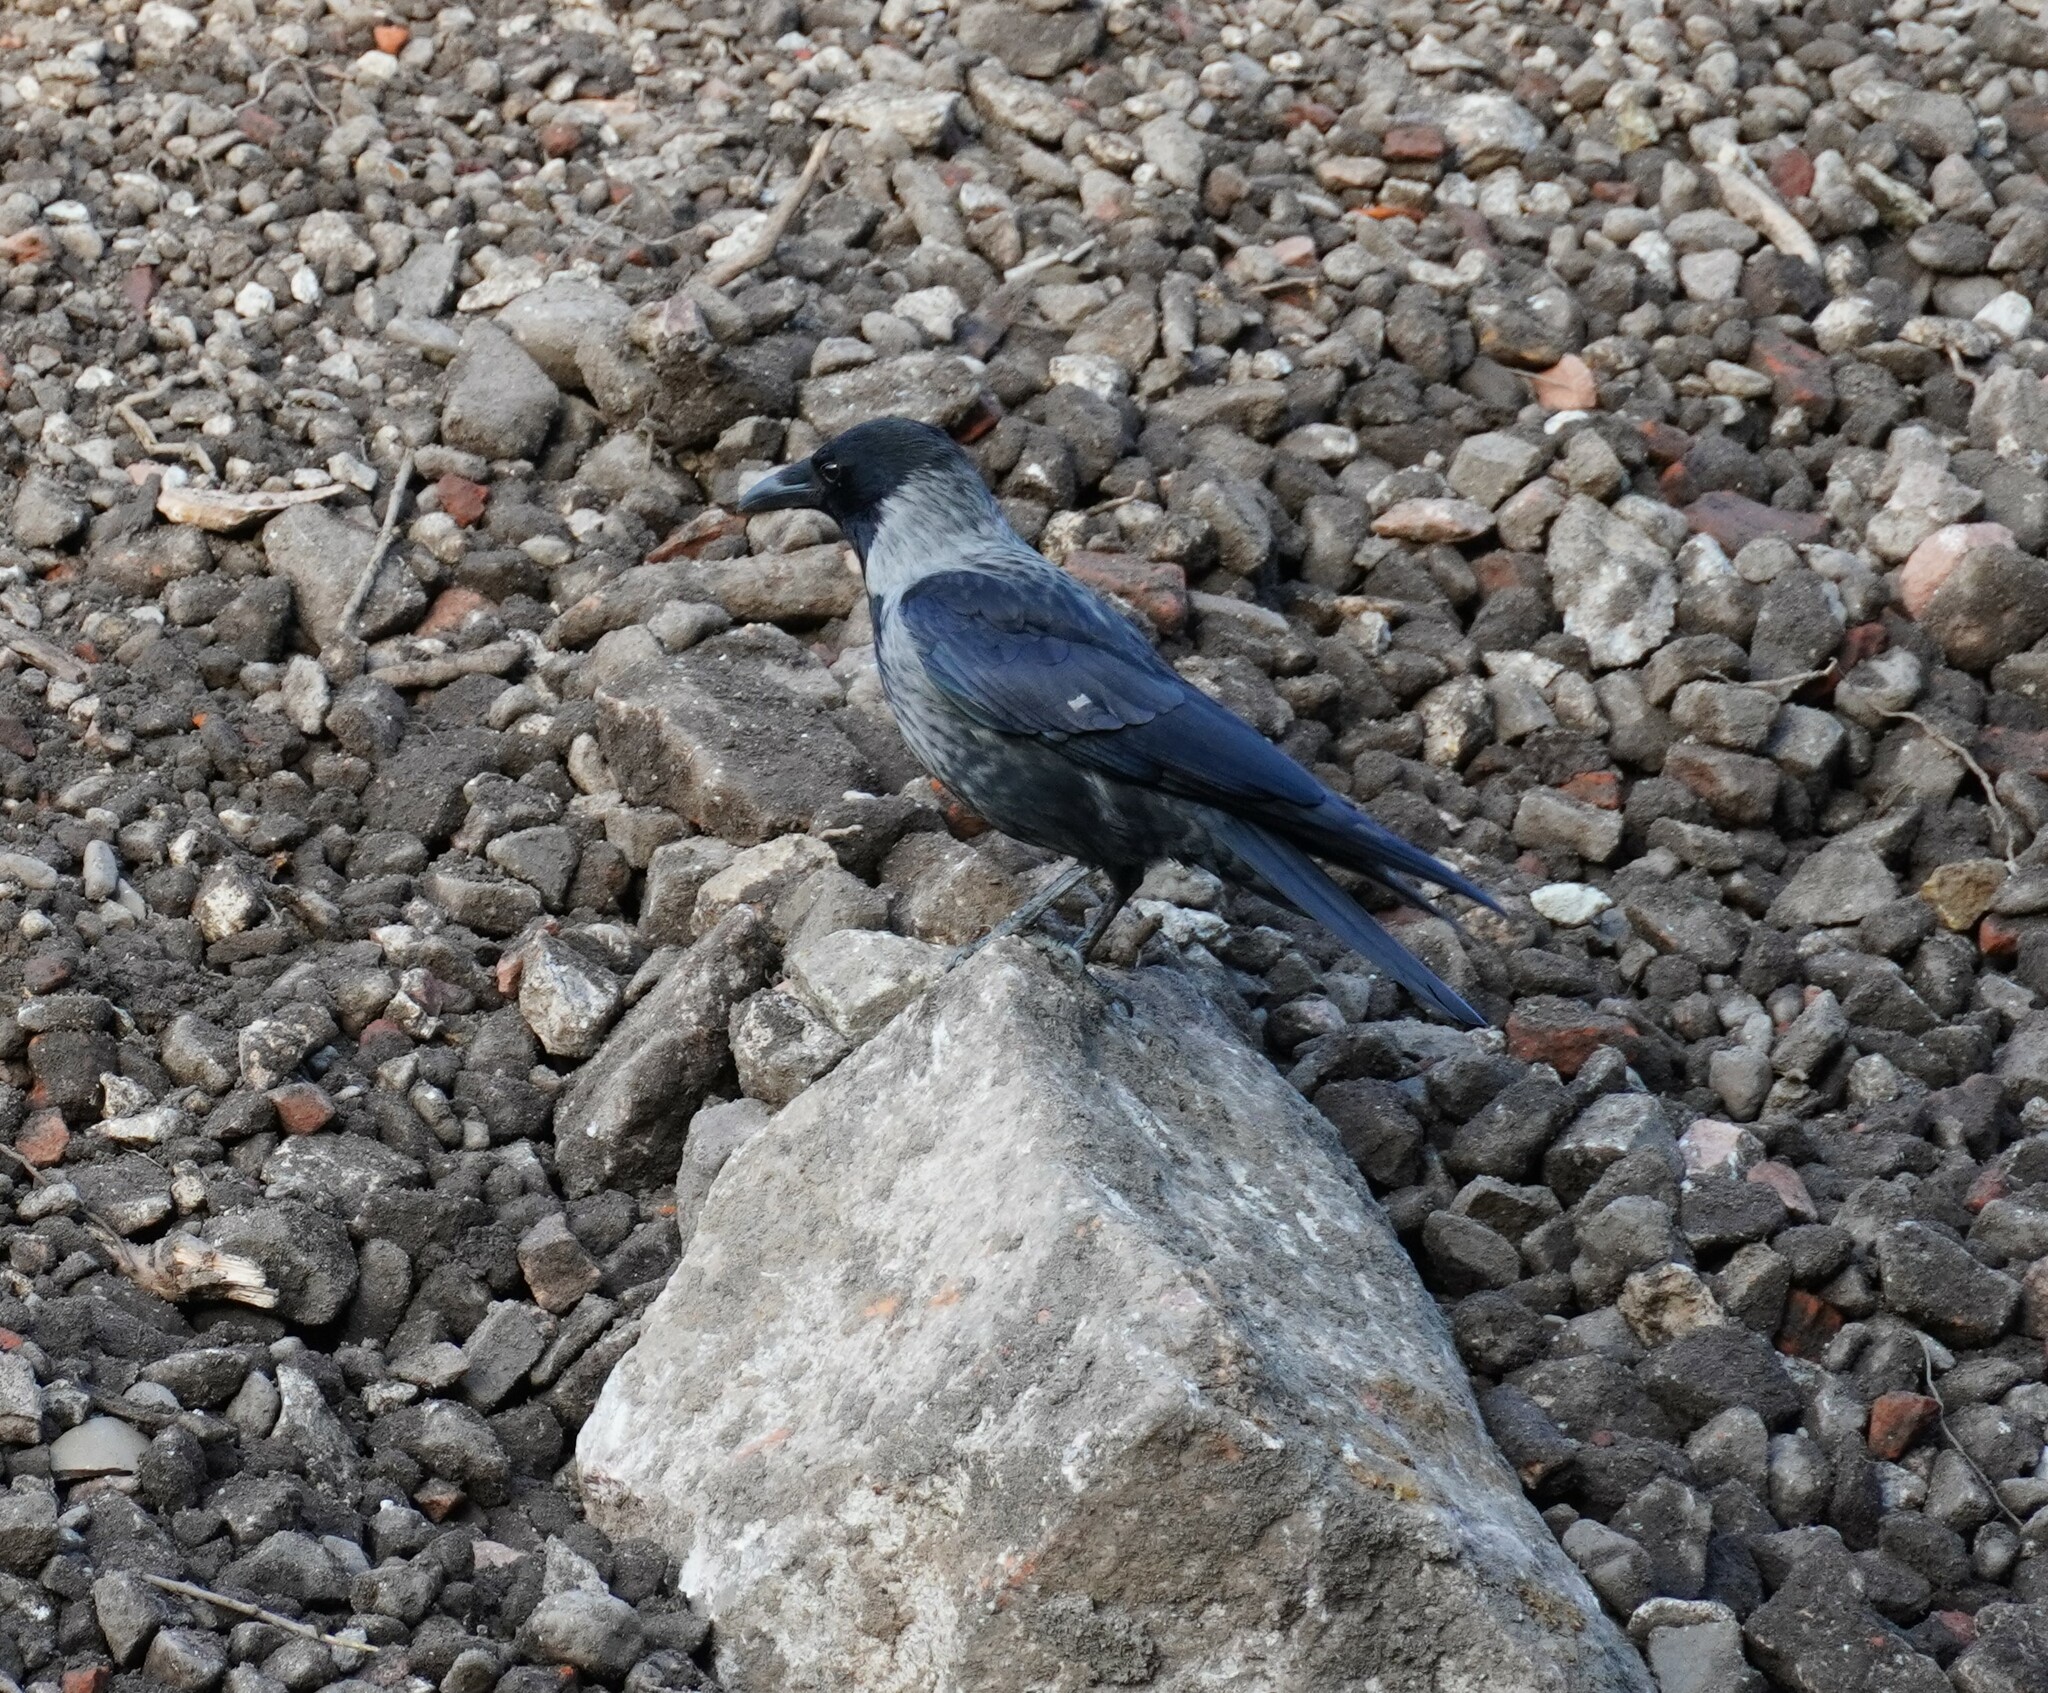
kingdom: Animalia
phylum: Chordata
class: Aves
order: Passeriformes
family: Corvidae
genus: Corvus
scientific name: Corvus
